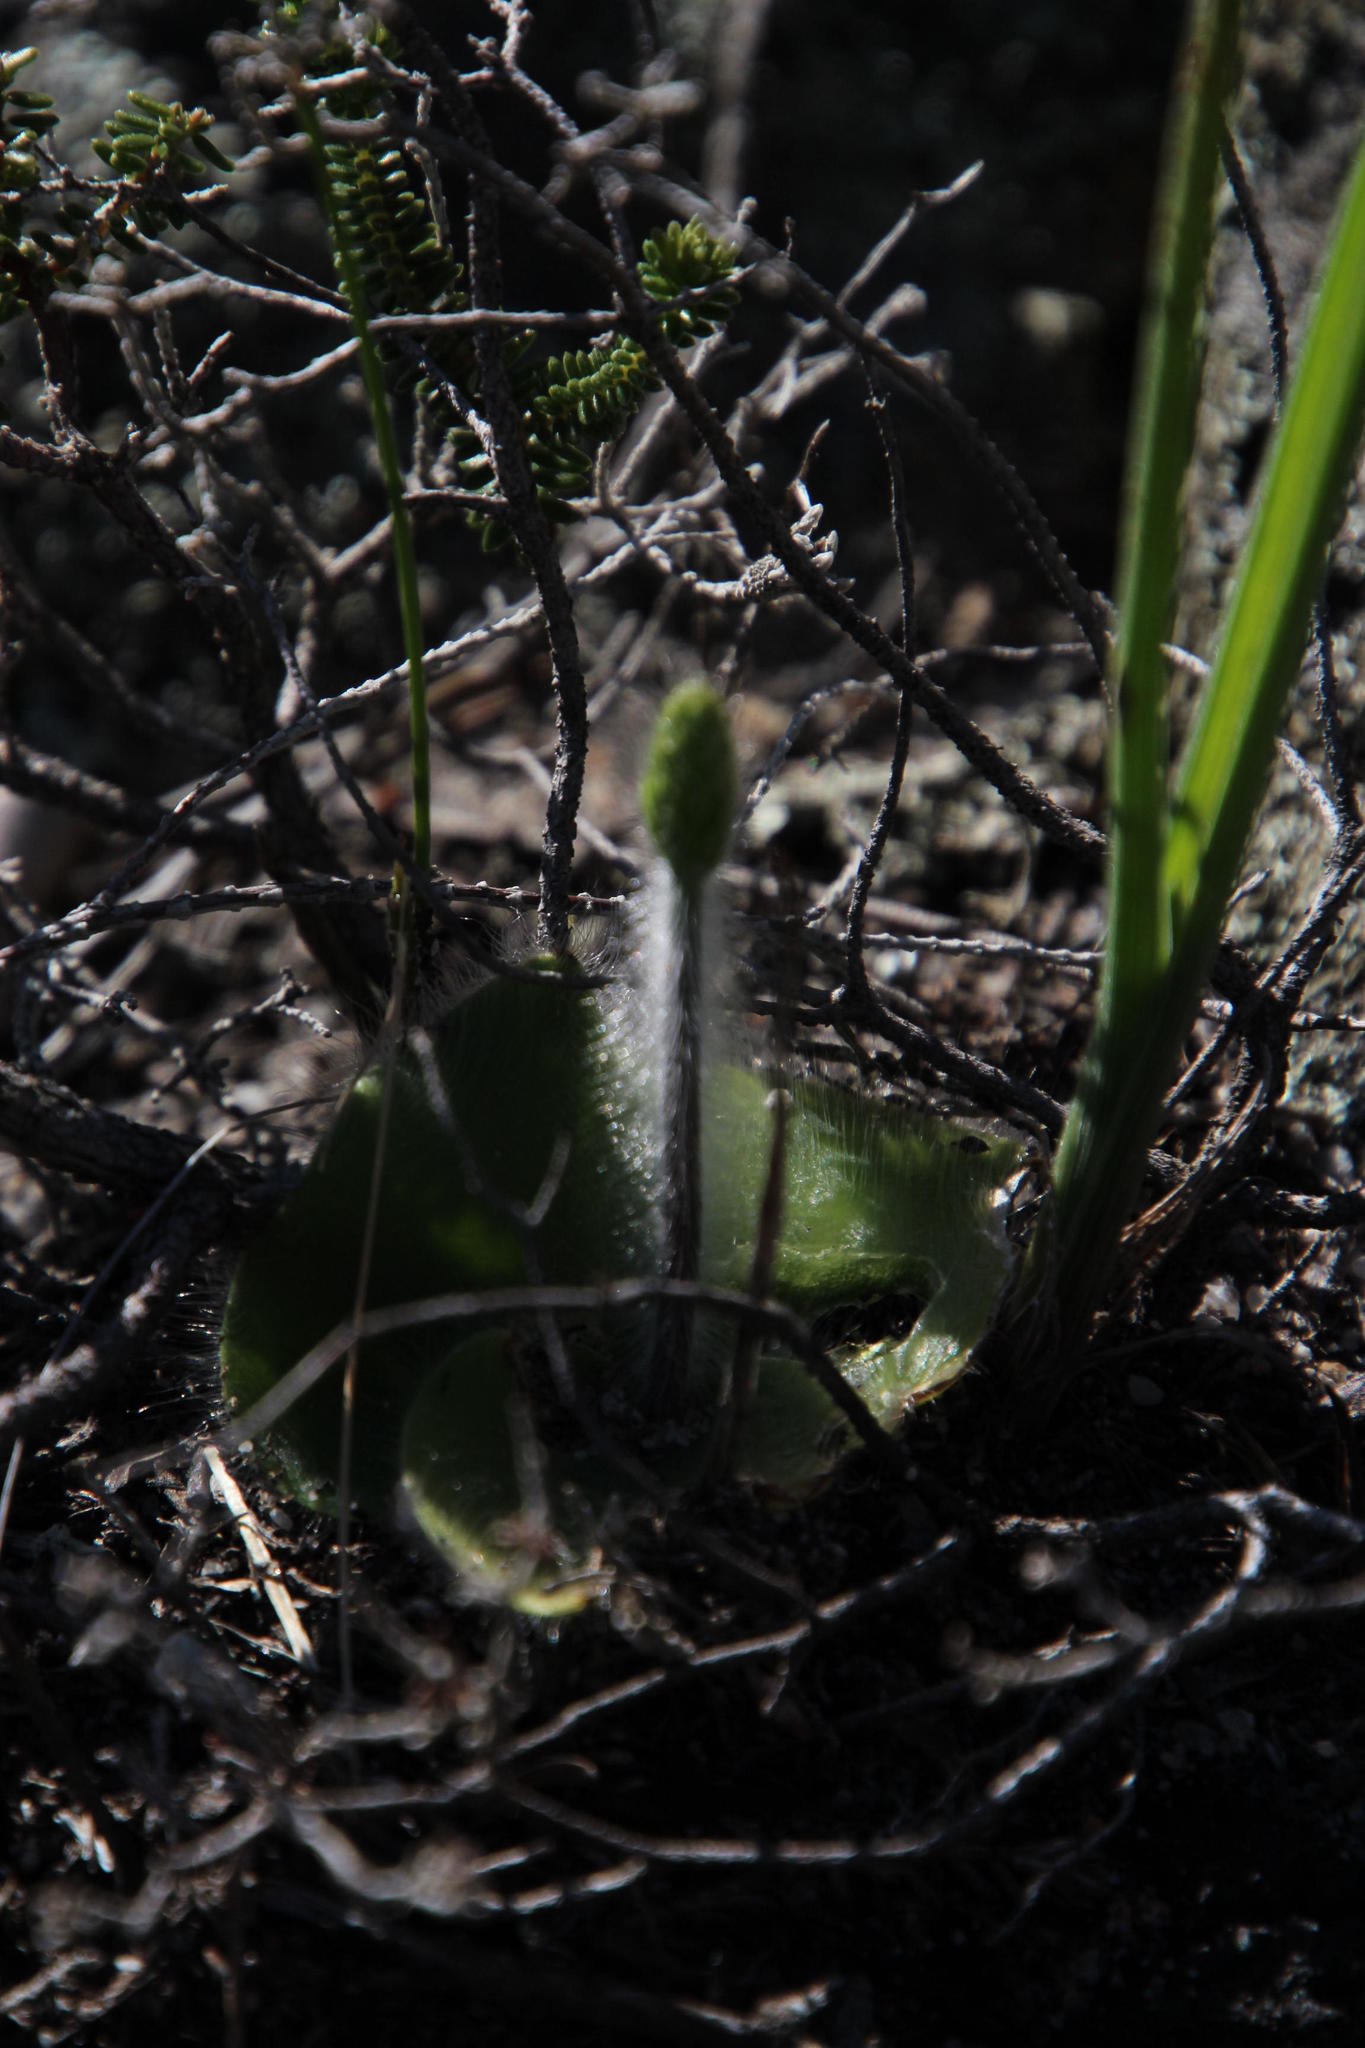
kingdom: Plantae
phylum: Tracheophyta
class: Liliopsida
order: Asparagales
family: Orchidaceae
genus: Holothrix
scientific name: Holothrix villosa
